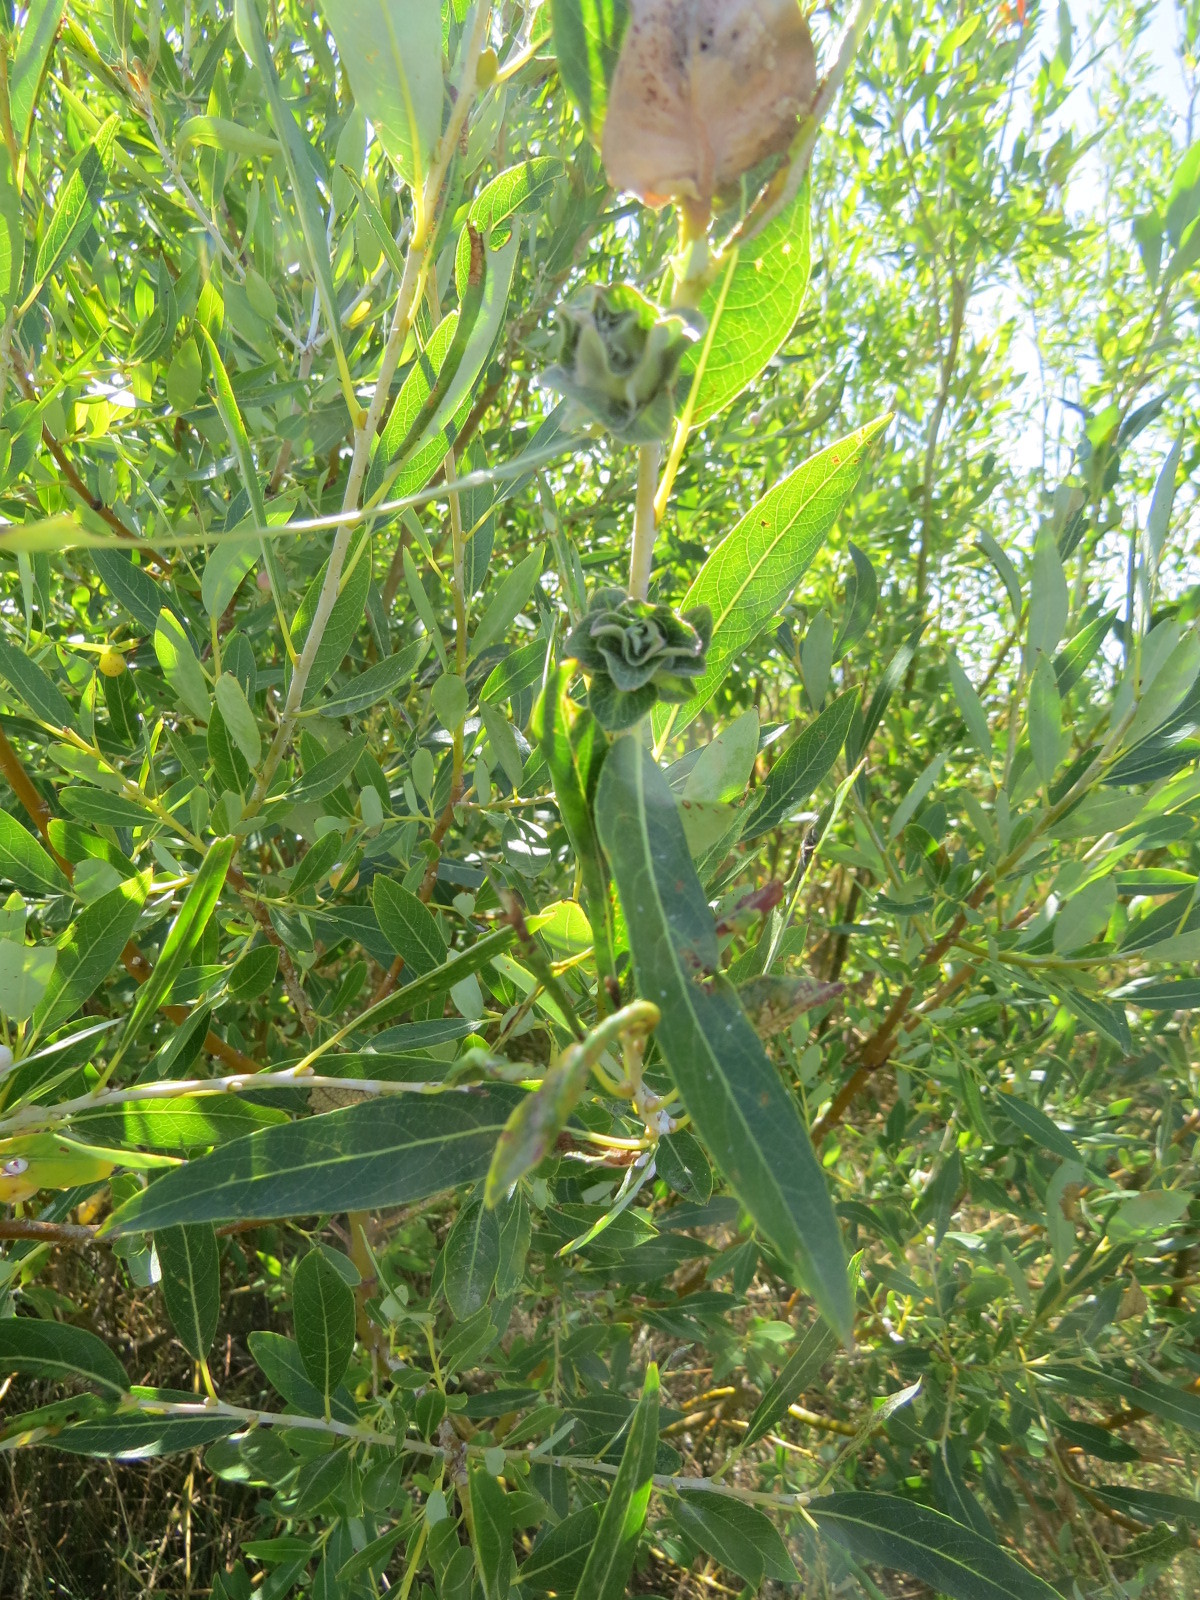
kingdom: Animalia
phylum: Arthropoda
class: Insecta
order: Diptera
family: Cecidomyiidae
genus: Rabdophaga
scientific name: Rabdophaga salicisbrassicoides
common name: Willow cabbagegall midge
